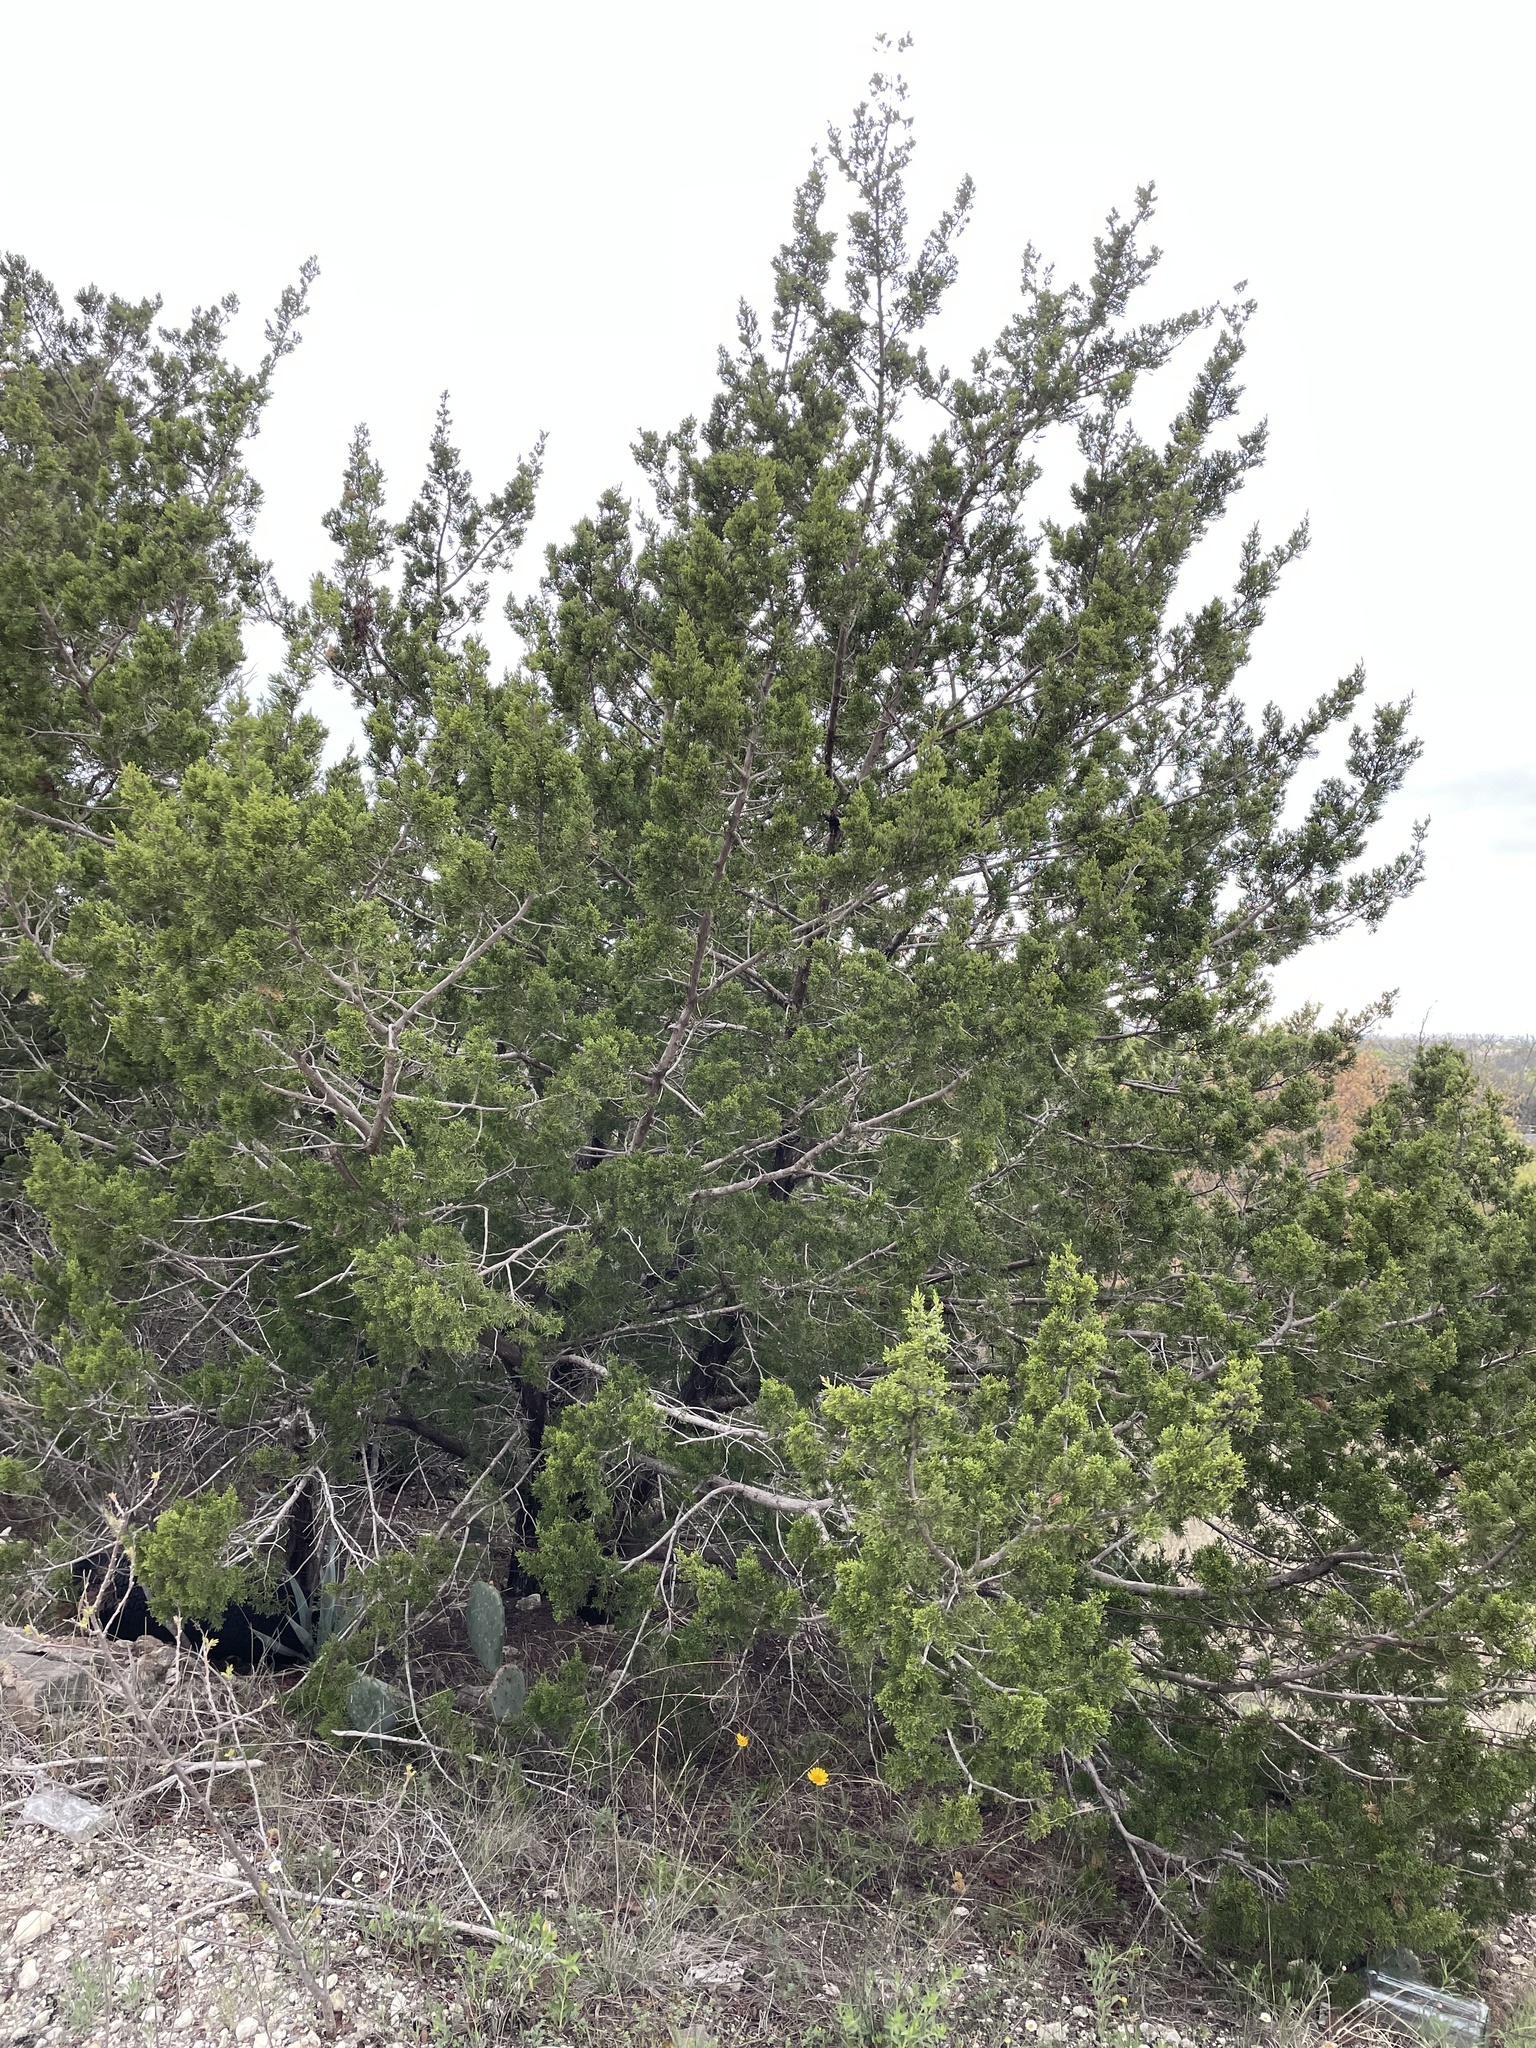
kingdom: Plantae
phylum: Tracheophyta
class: Pinopsida
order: Pinales
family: Cupressaceae
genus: Juniperus
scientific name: Juniperus ashei
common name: Mexican juniper
